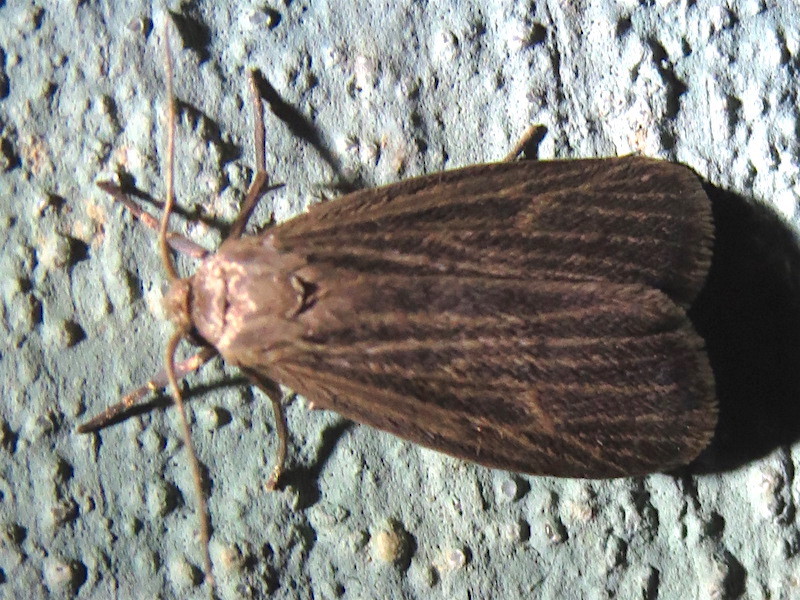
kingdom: Animalia
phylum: Arthropoda
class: Insecta
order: Lepidoptera
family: Erebidae
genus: Crambidia
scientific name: Crambidia pallida
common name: Pale lichen moth
